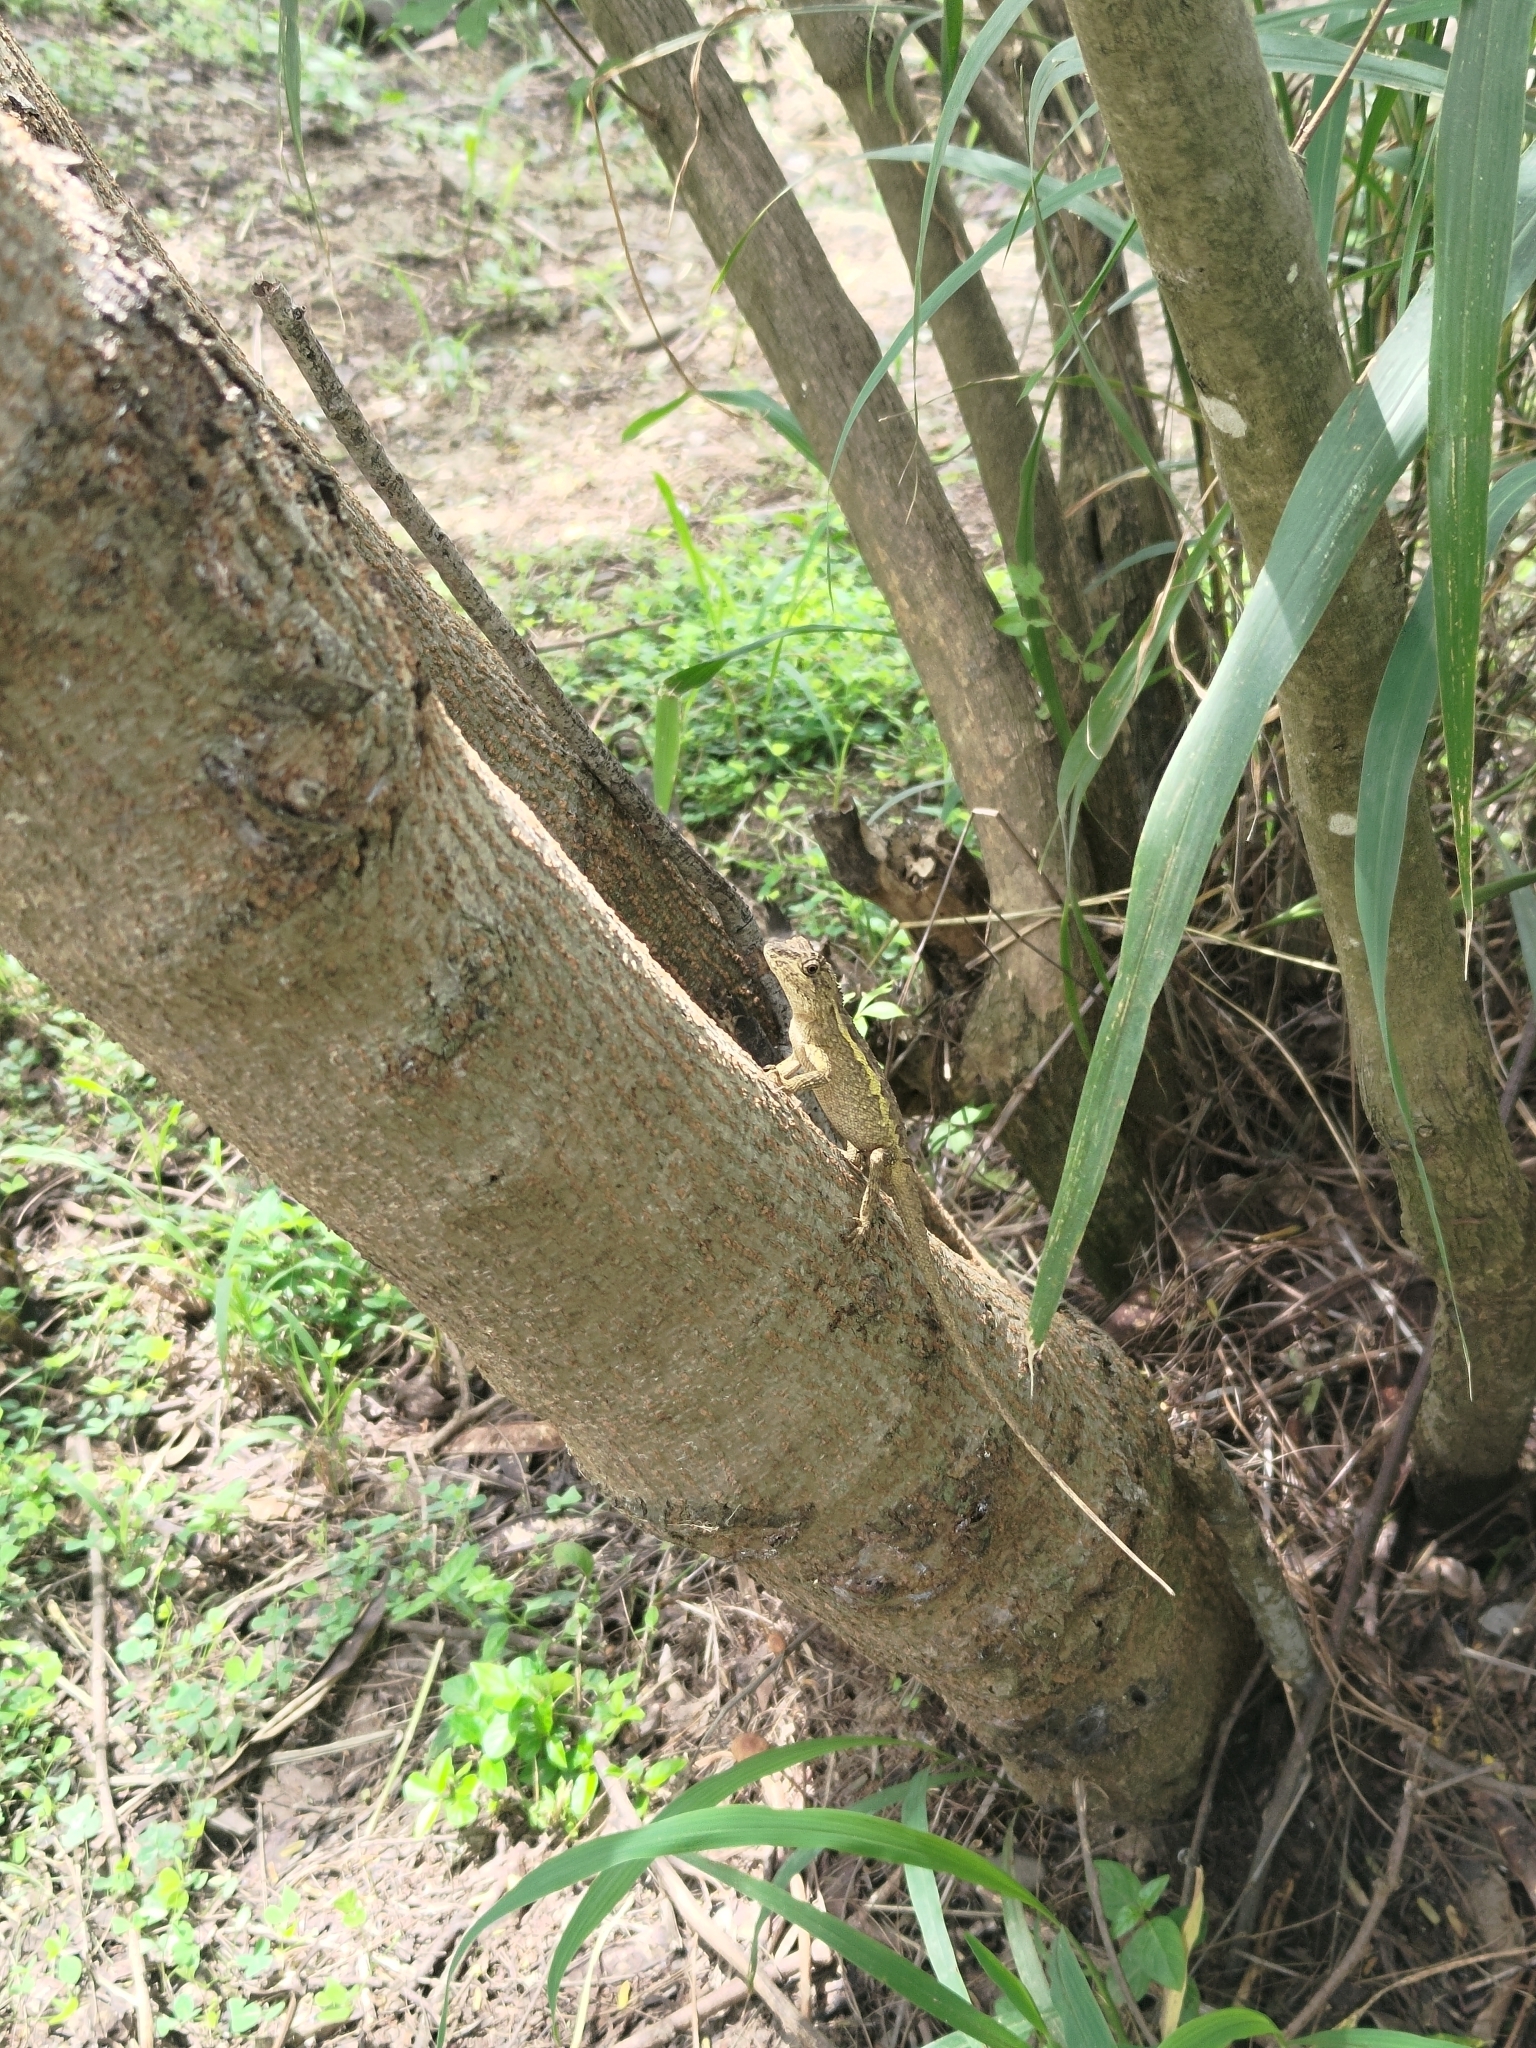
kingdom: Animalia
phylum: Chordata
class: Squamata
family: Agamidae
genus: Diploderma
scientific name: Diploderma swinhonis
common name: Taiwan japalure
